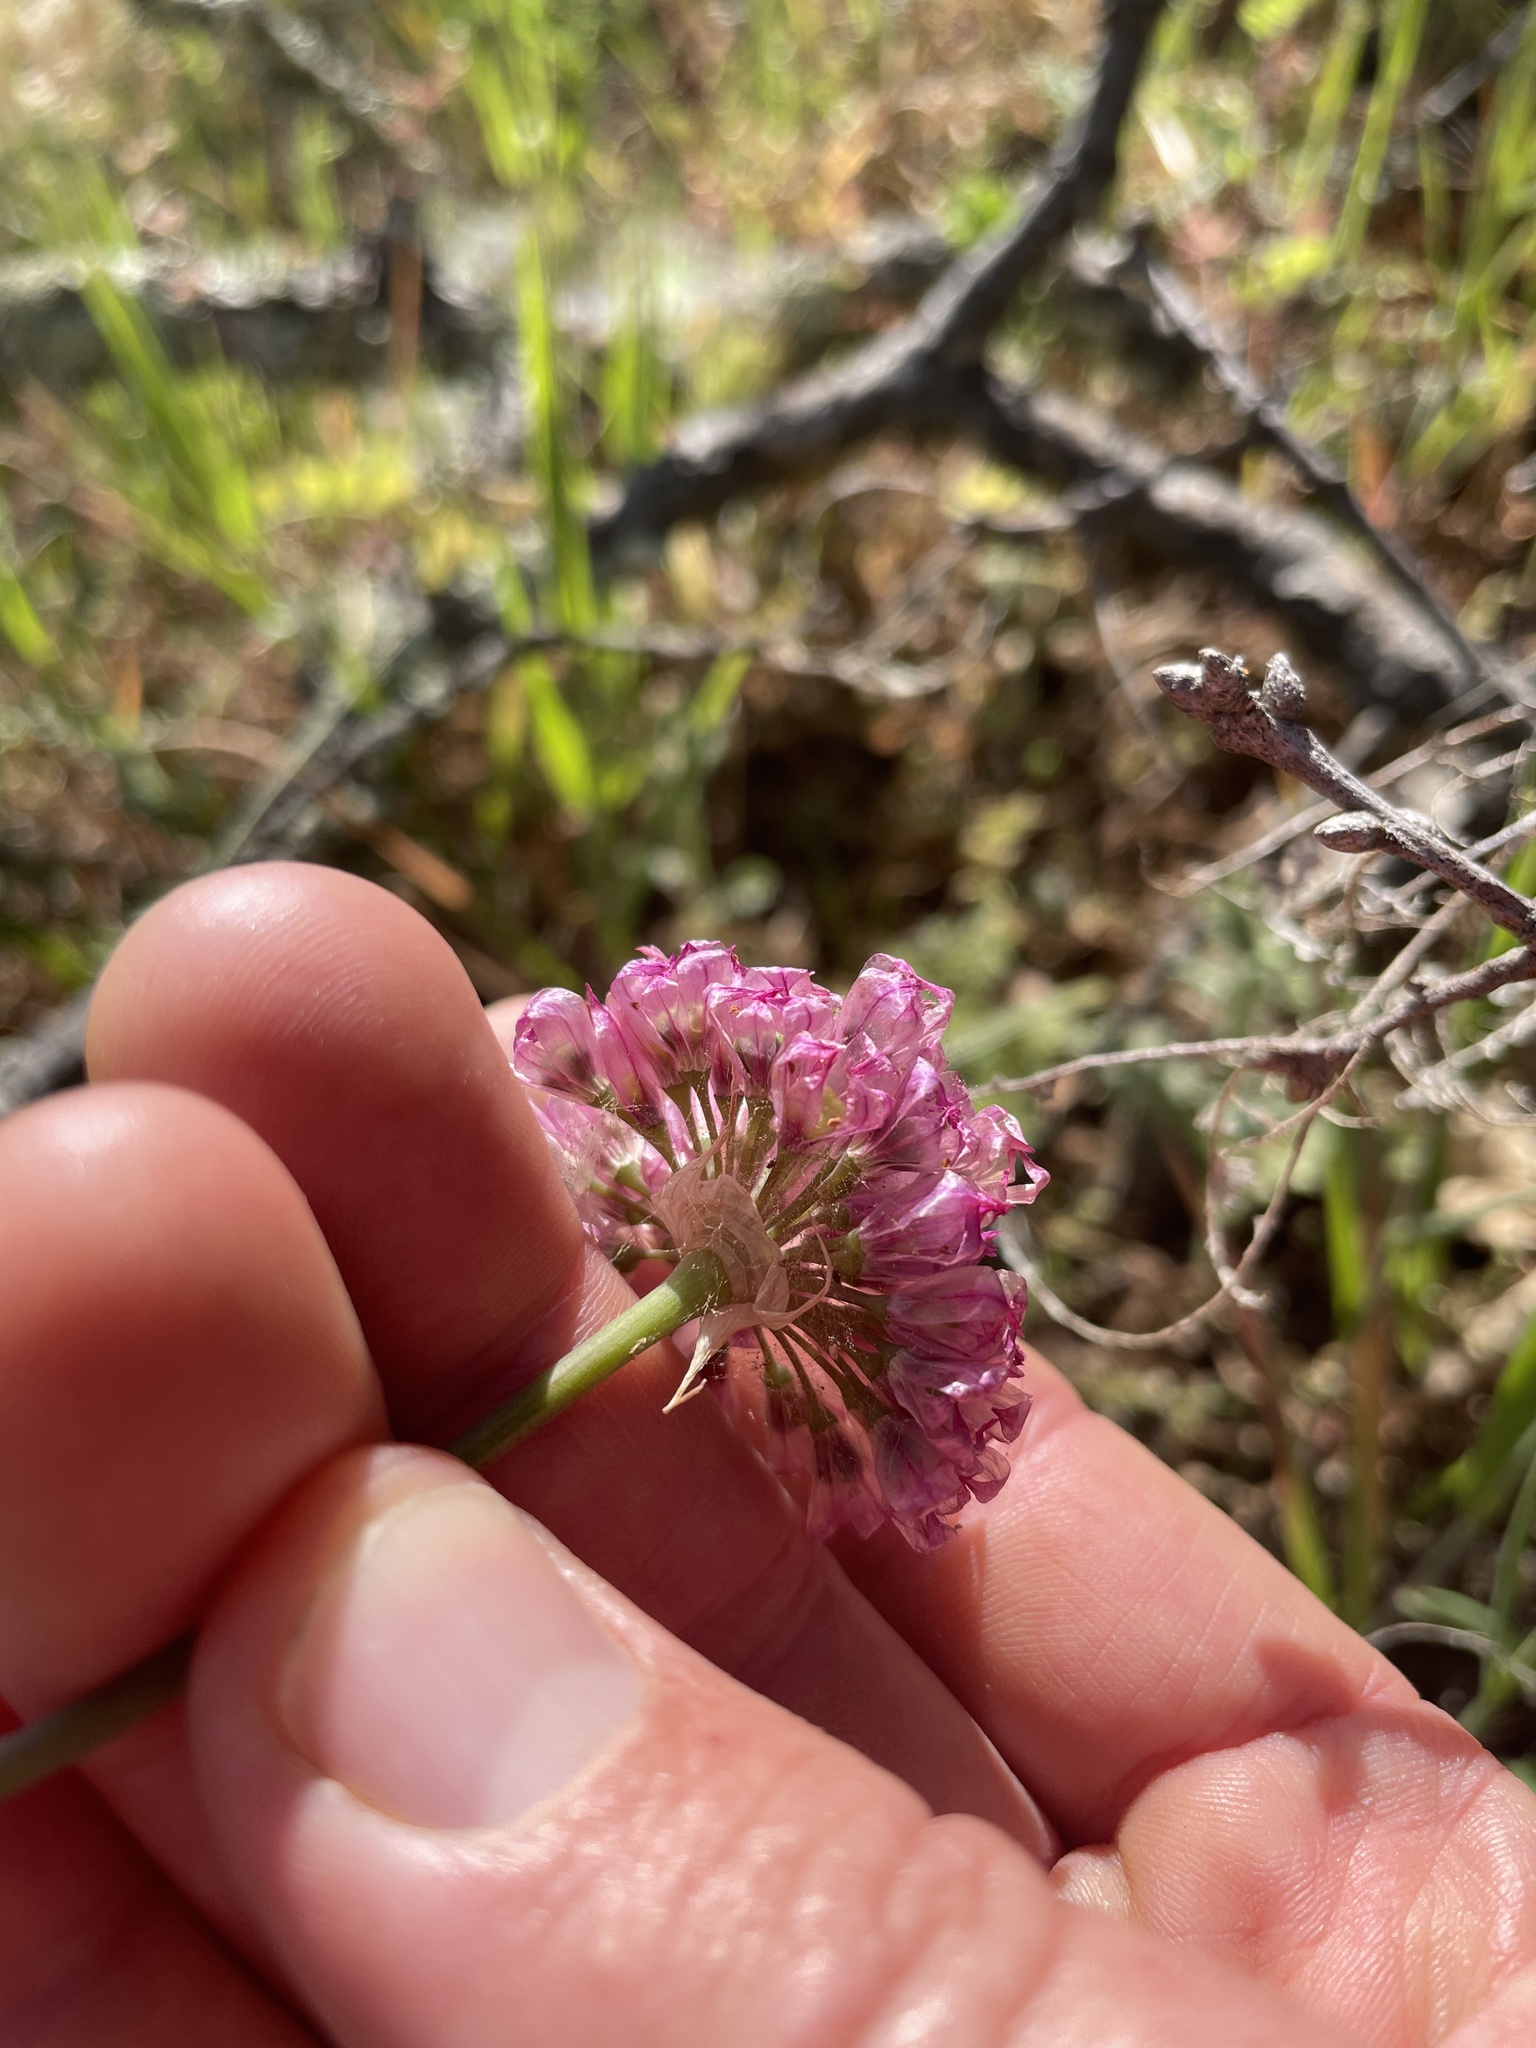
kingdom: Plantae
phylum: Tracheophyta
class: Liliopsida
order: Asparagales
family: Amaryllidaceae
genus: Allium
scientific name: Allium serra
